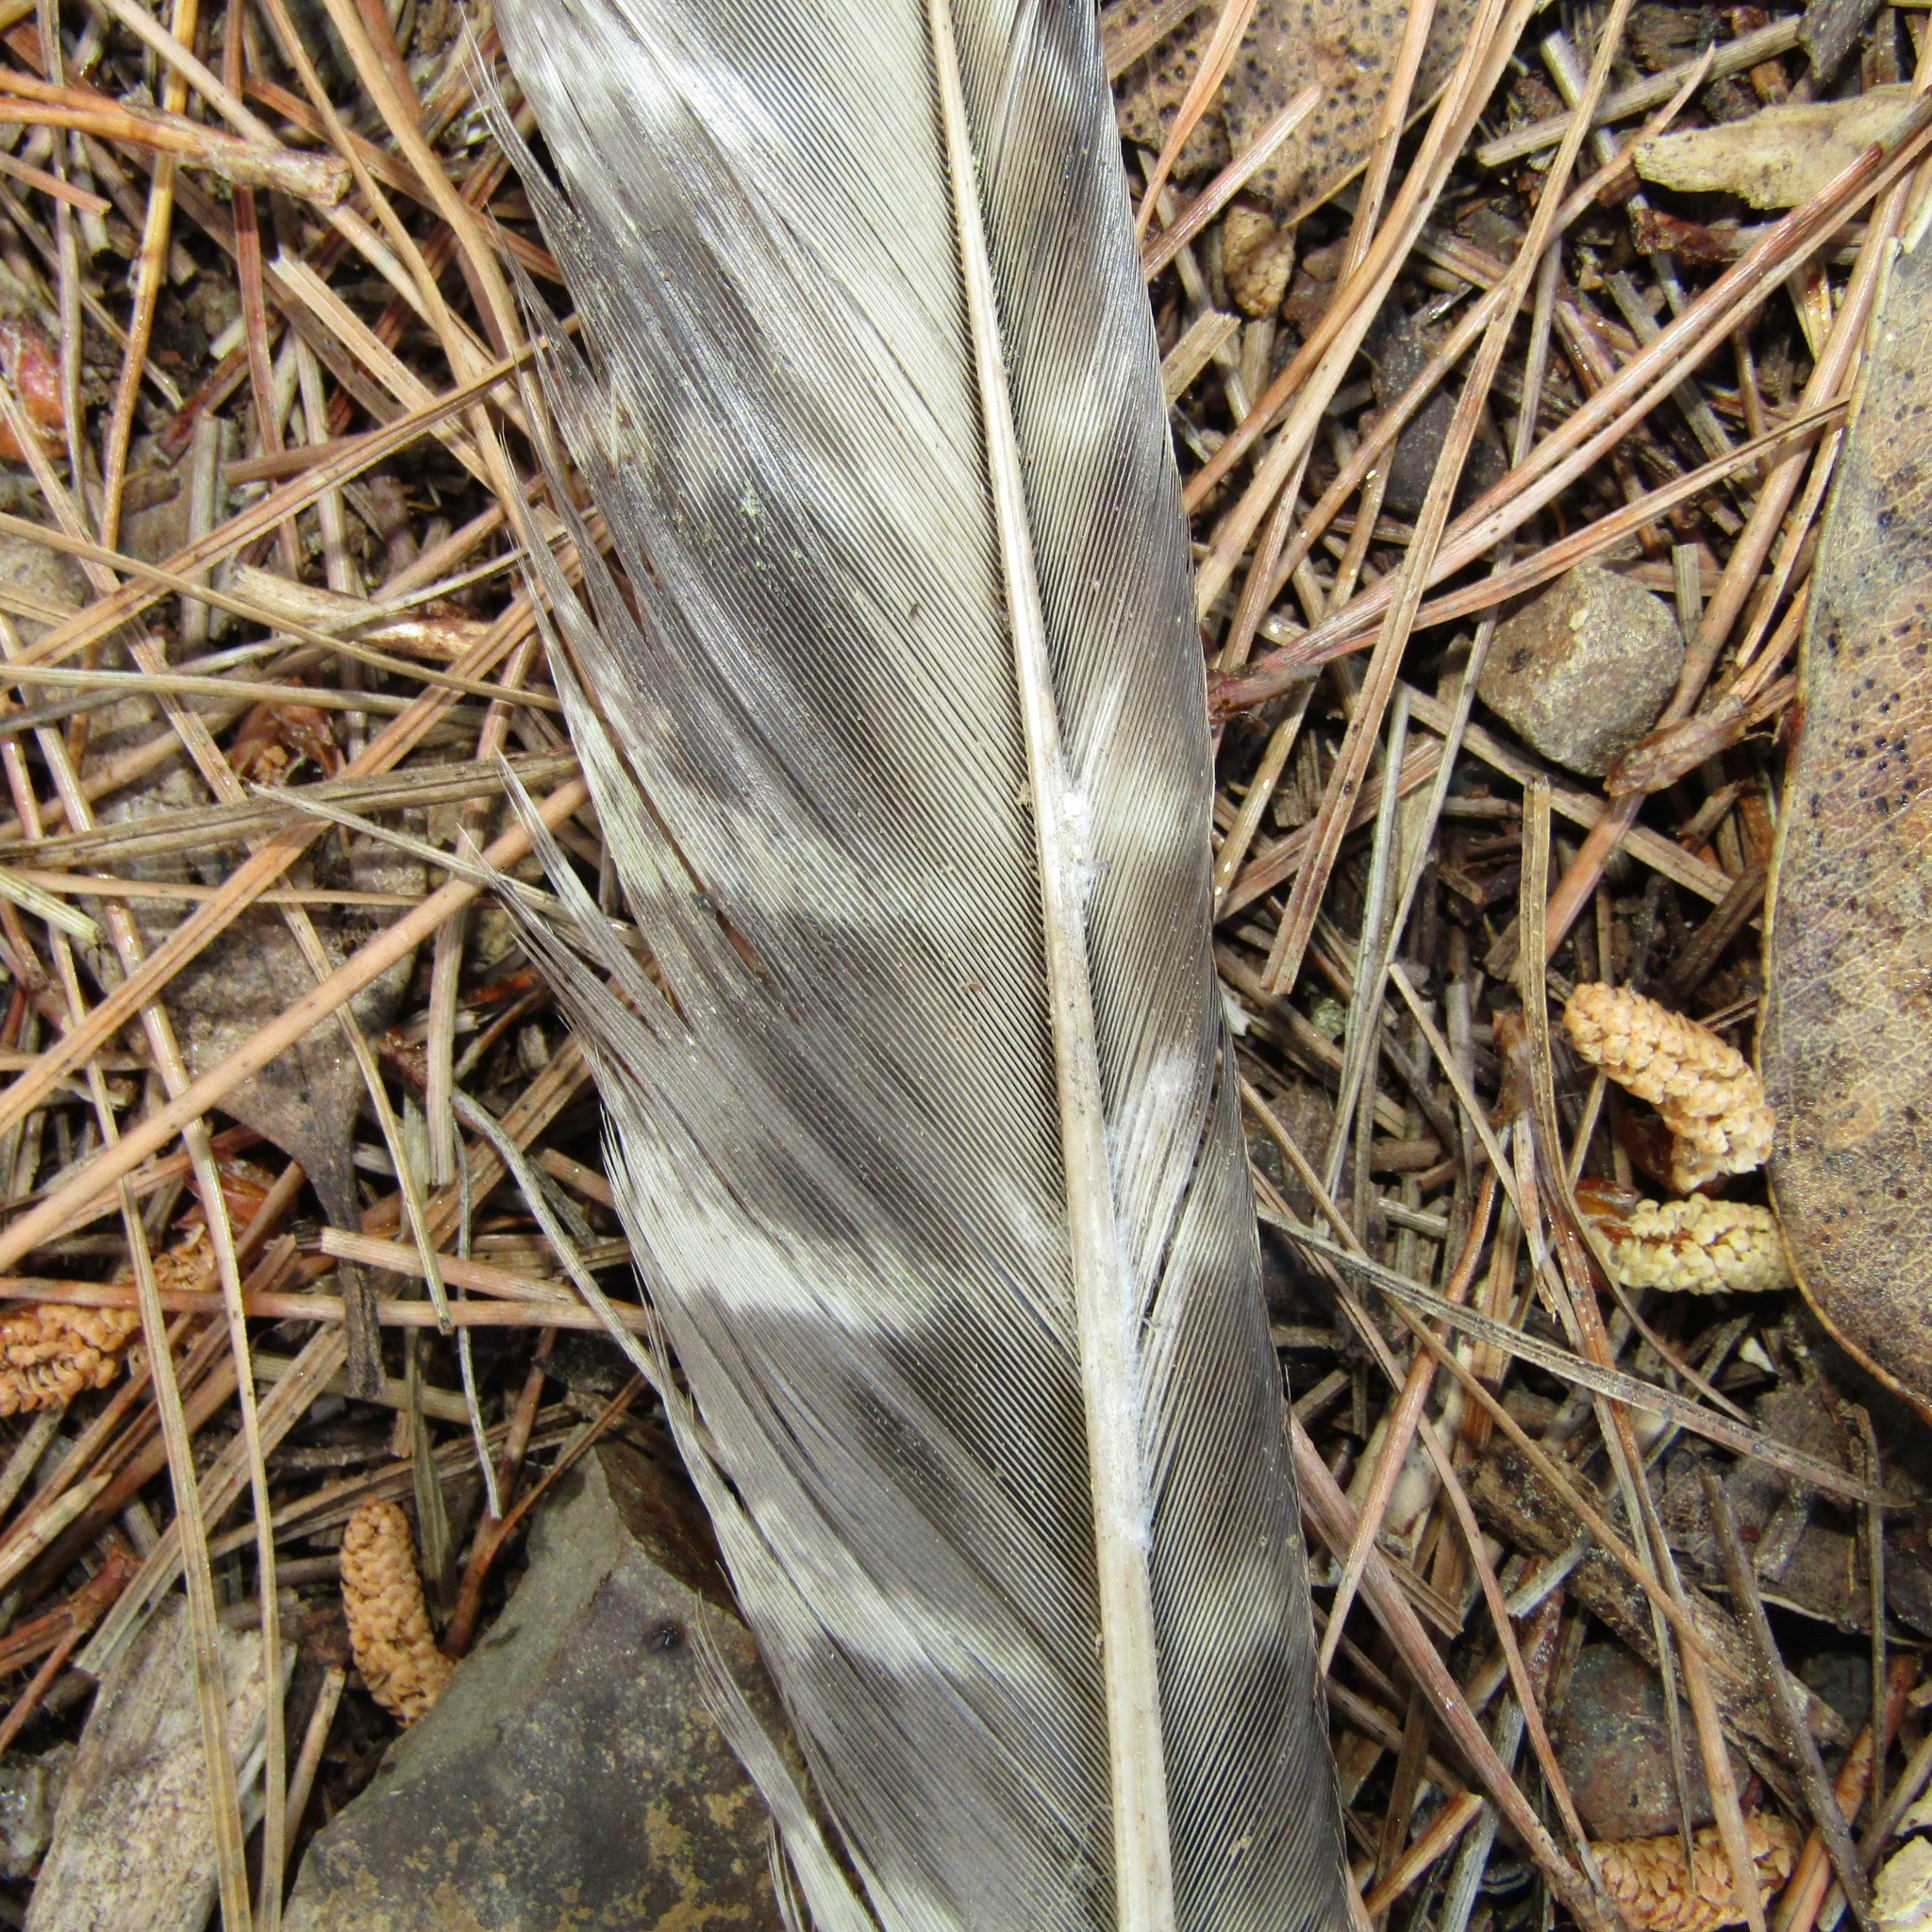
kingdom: Animalia
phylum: Chordata
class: Aves
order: Falconiformes
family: Falconidae
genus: Falco
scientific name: Falco novaeseelandiae
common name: New zealand falcon
